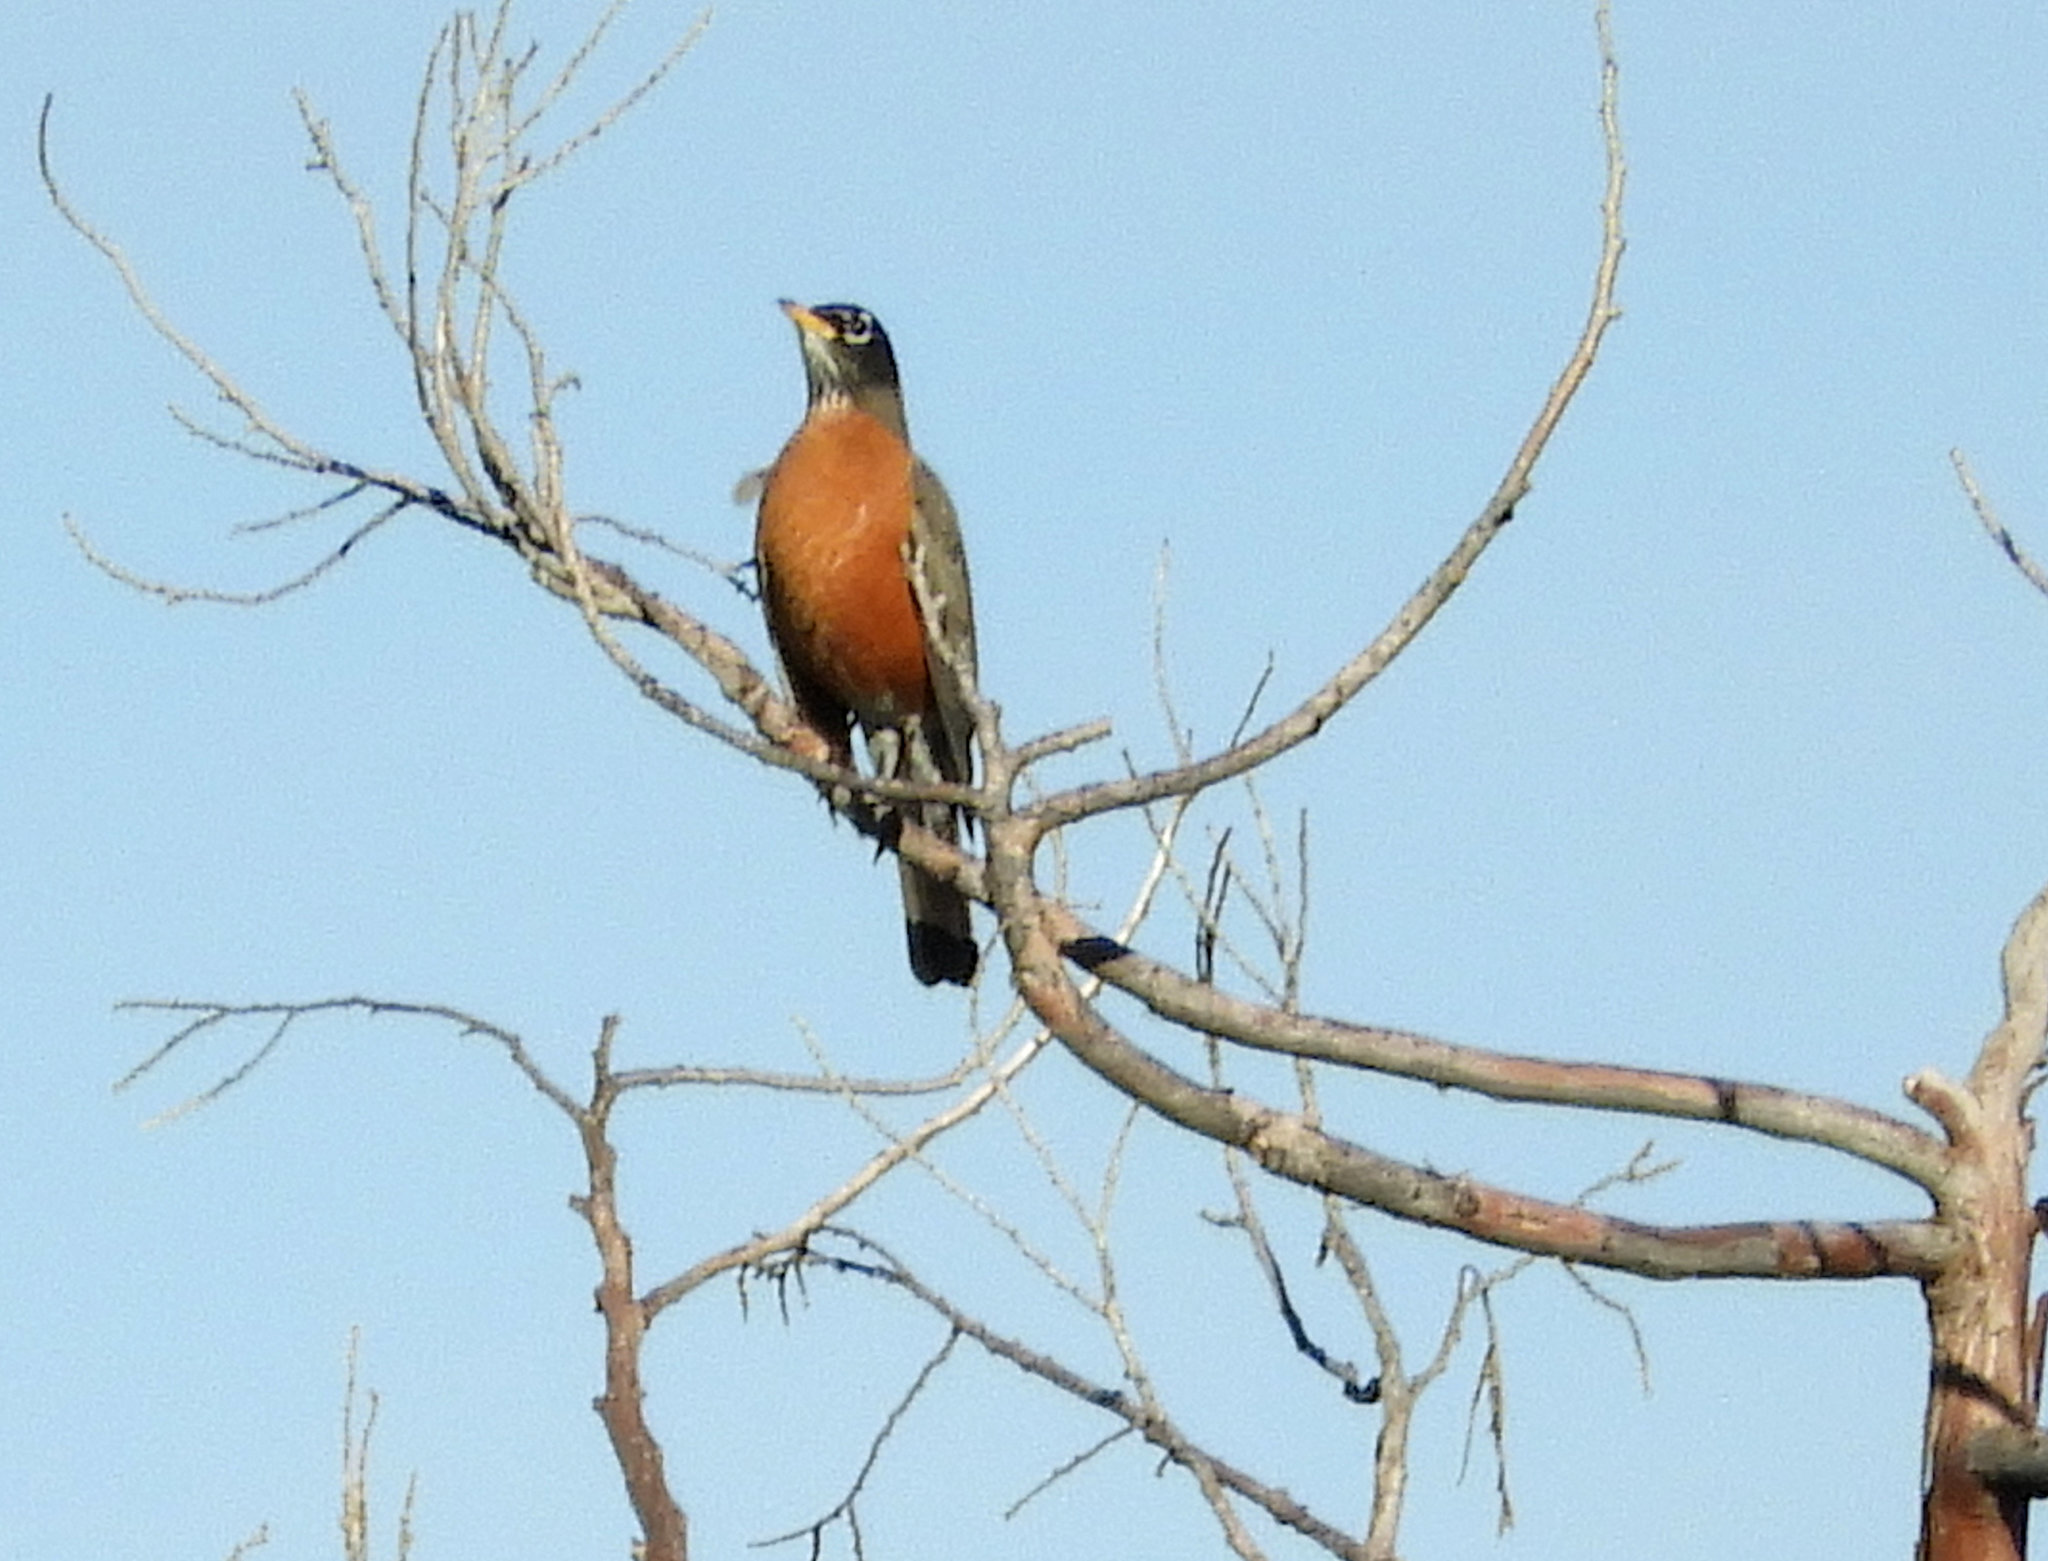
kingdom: Animalia
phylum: Chordata
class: Aves
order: Passeriformes
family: Turdidae
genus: Turdus
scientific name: Turdus migratorius
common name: American robin
